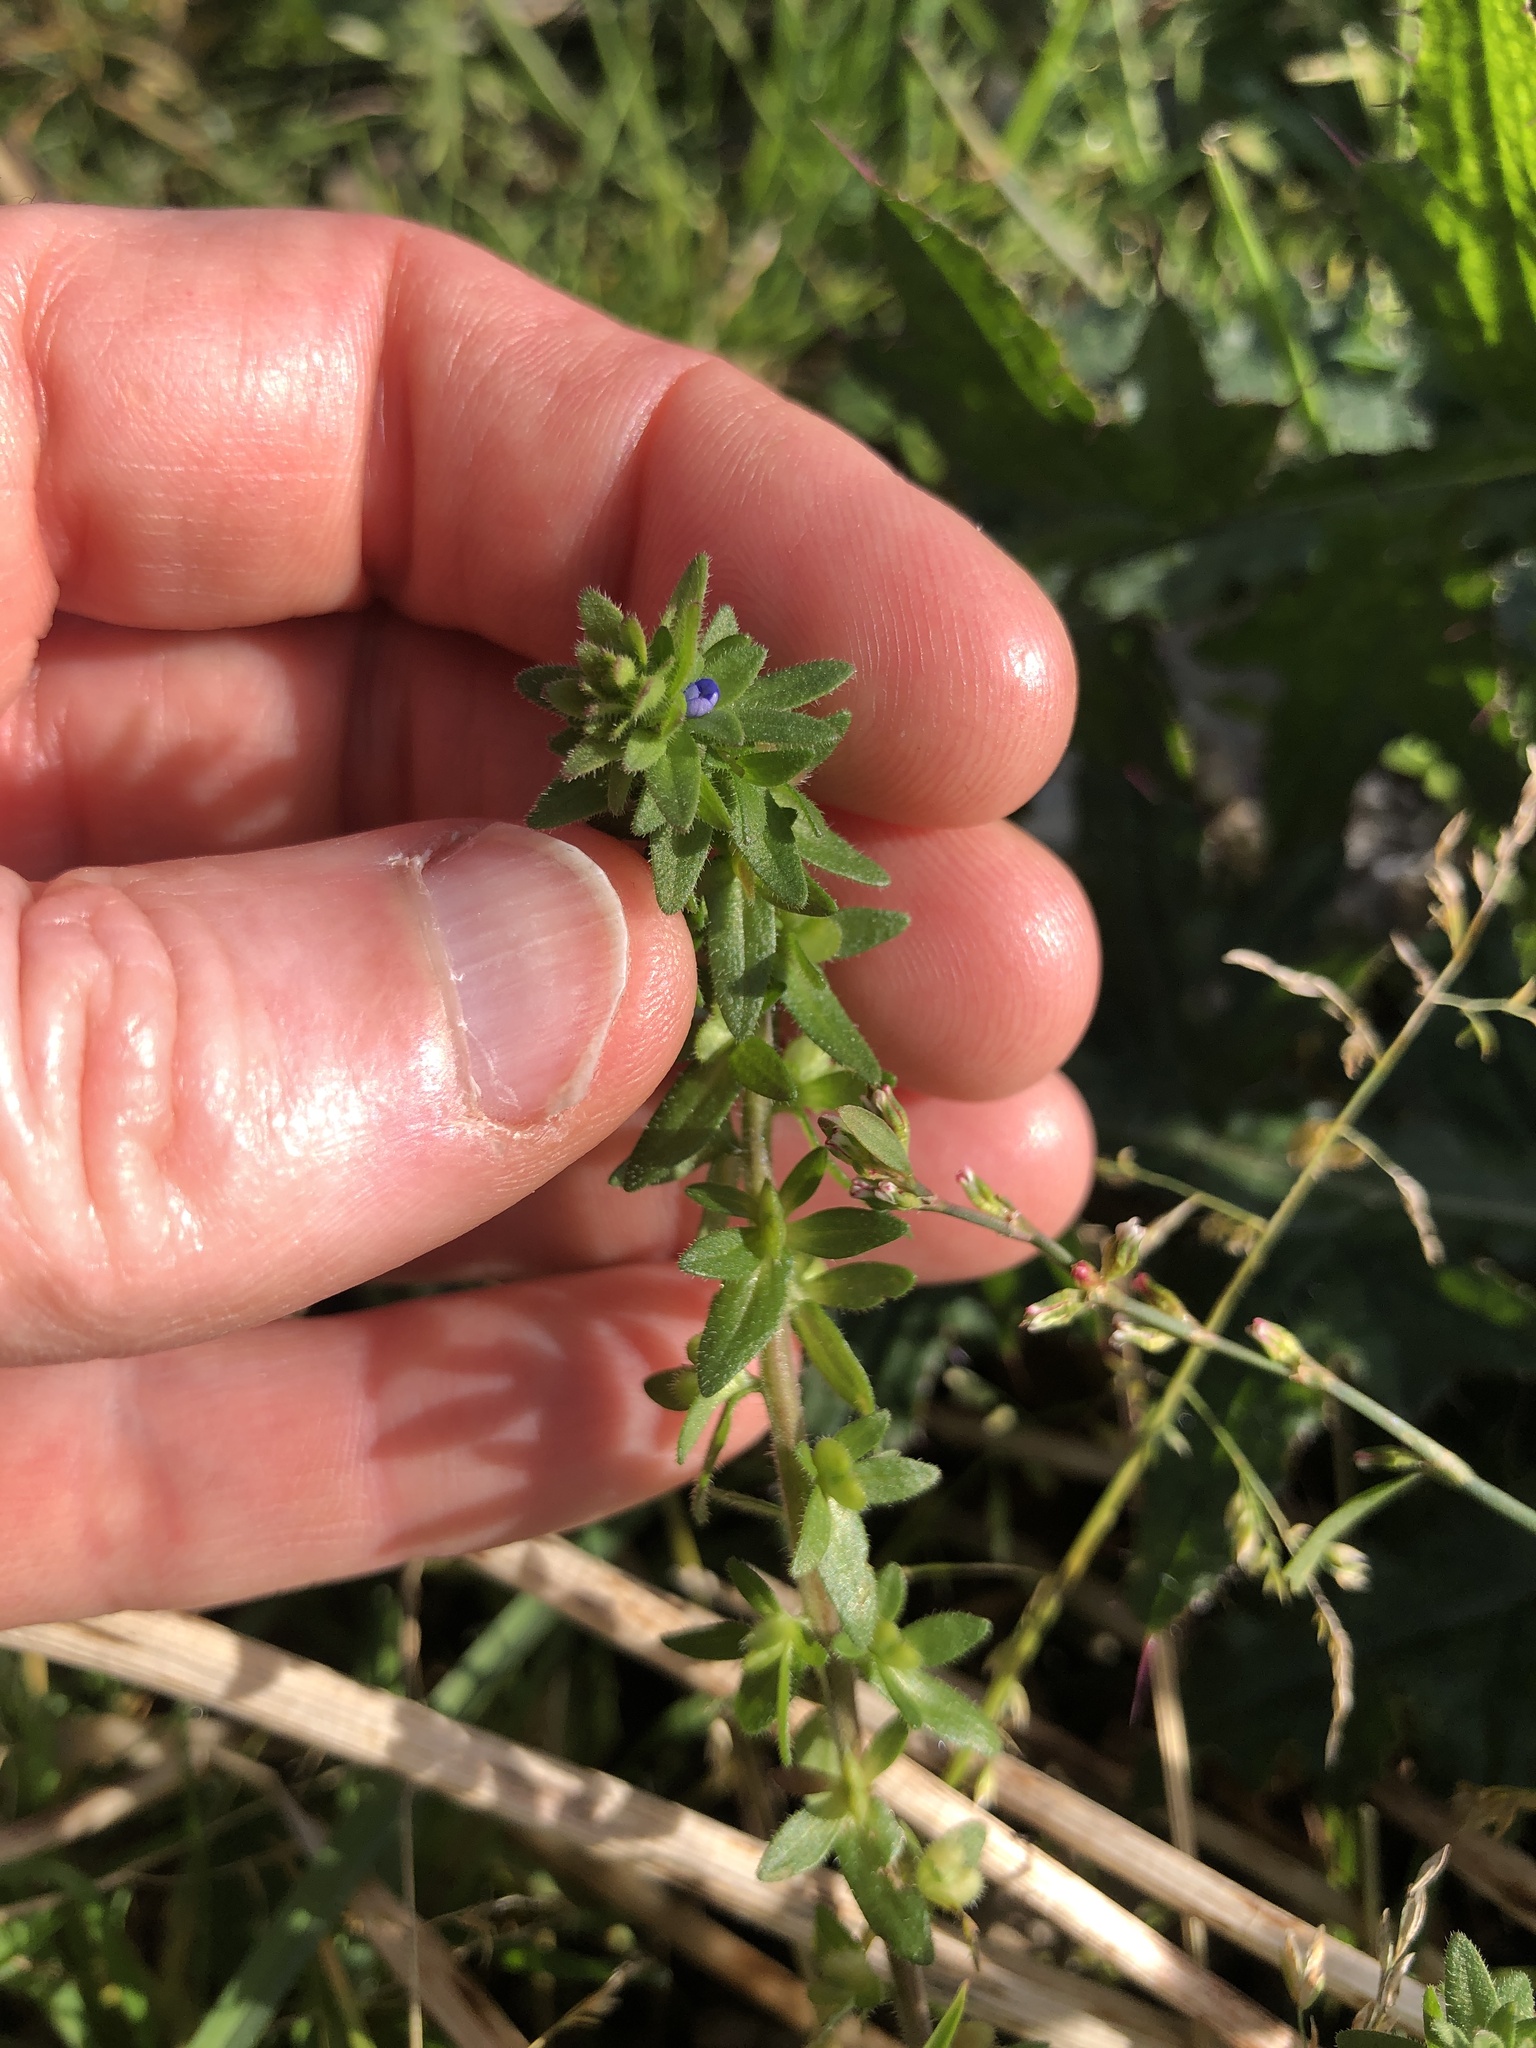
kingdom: Plantae
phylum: Tracheophyta
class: Magnoliopsida
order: Lamiales
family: Plantaginaceae
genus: Veronica
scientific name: Veronica arvensis
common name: Corn speedwell
